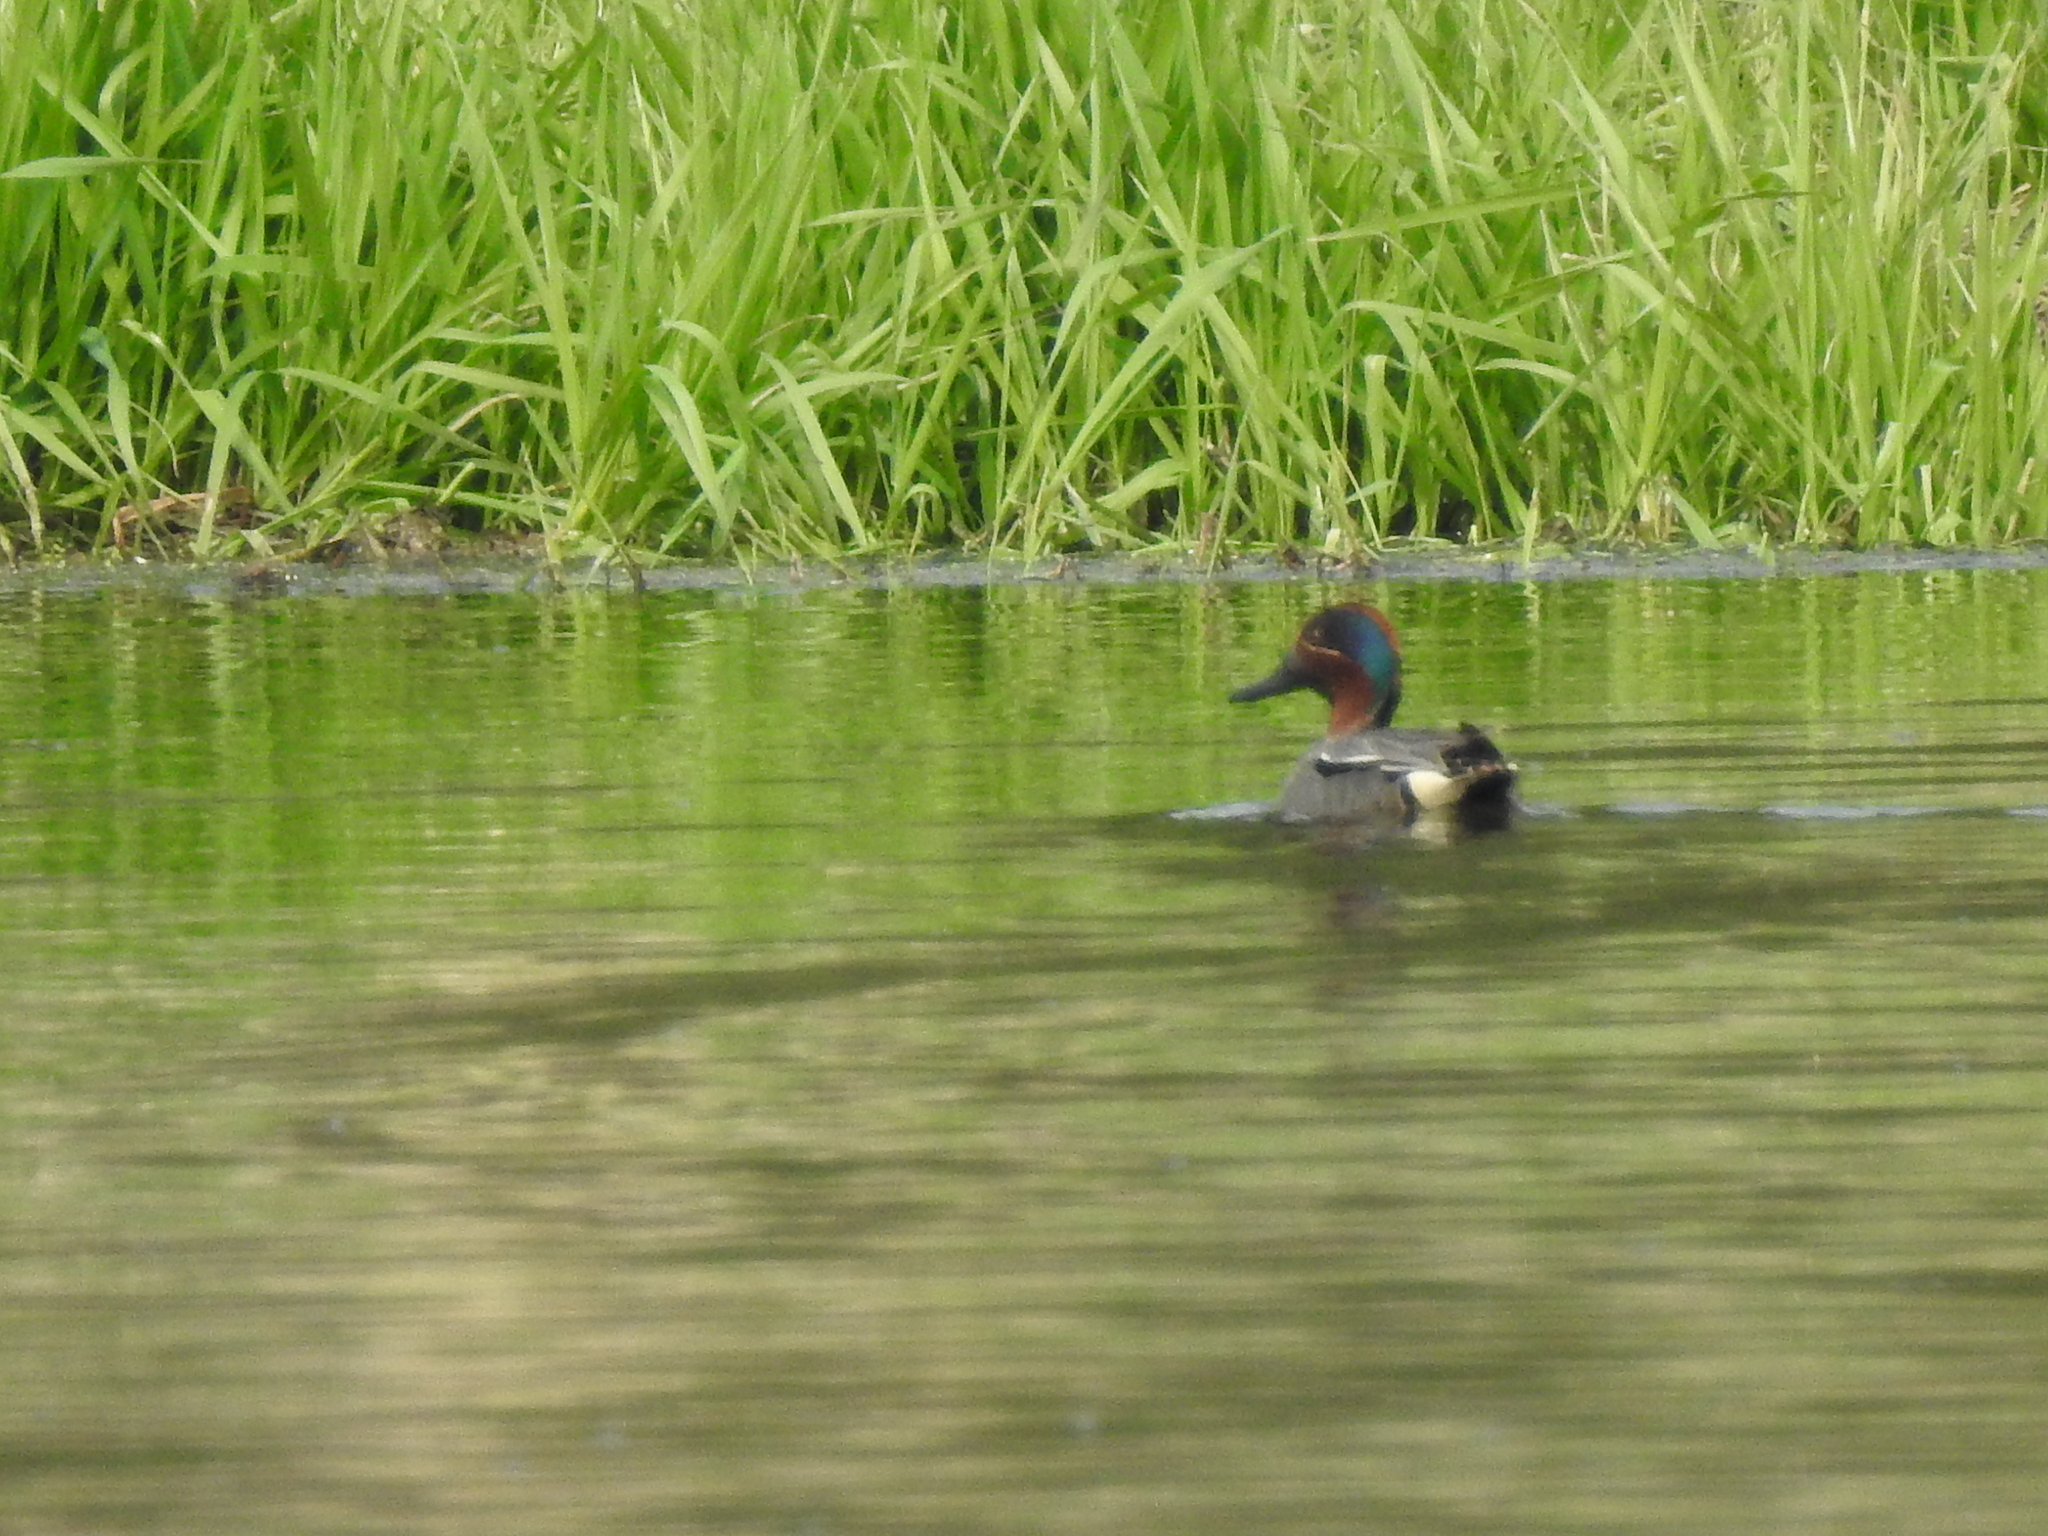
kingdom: Animalia
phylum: Chordata
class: Aves
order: Anseriformes
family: Anatidae
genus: Anas
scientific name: Anas crecca
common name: Eurasian teal
